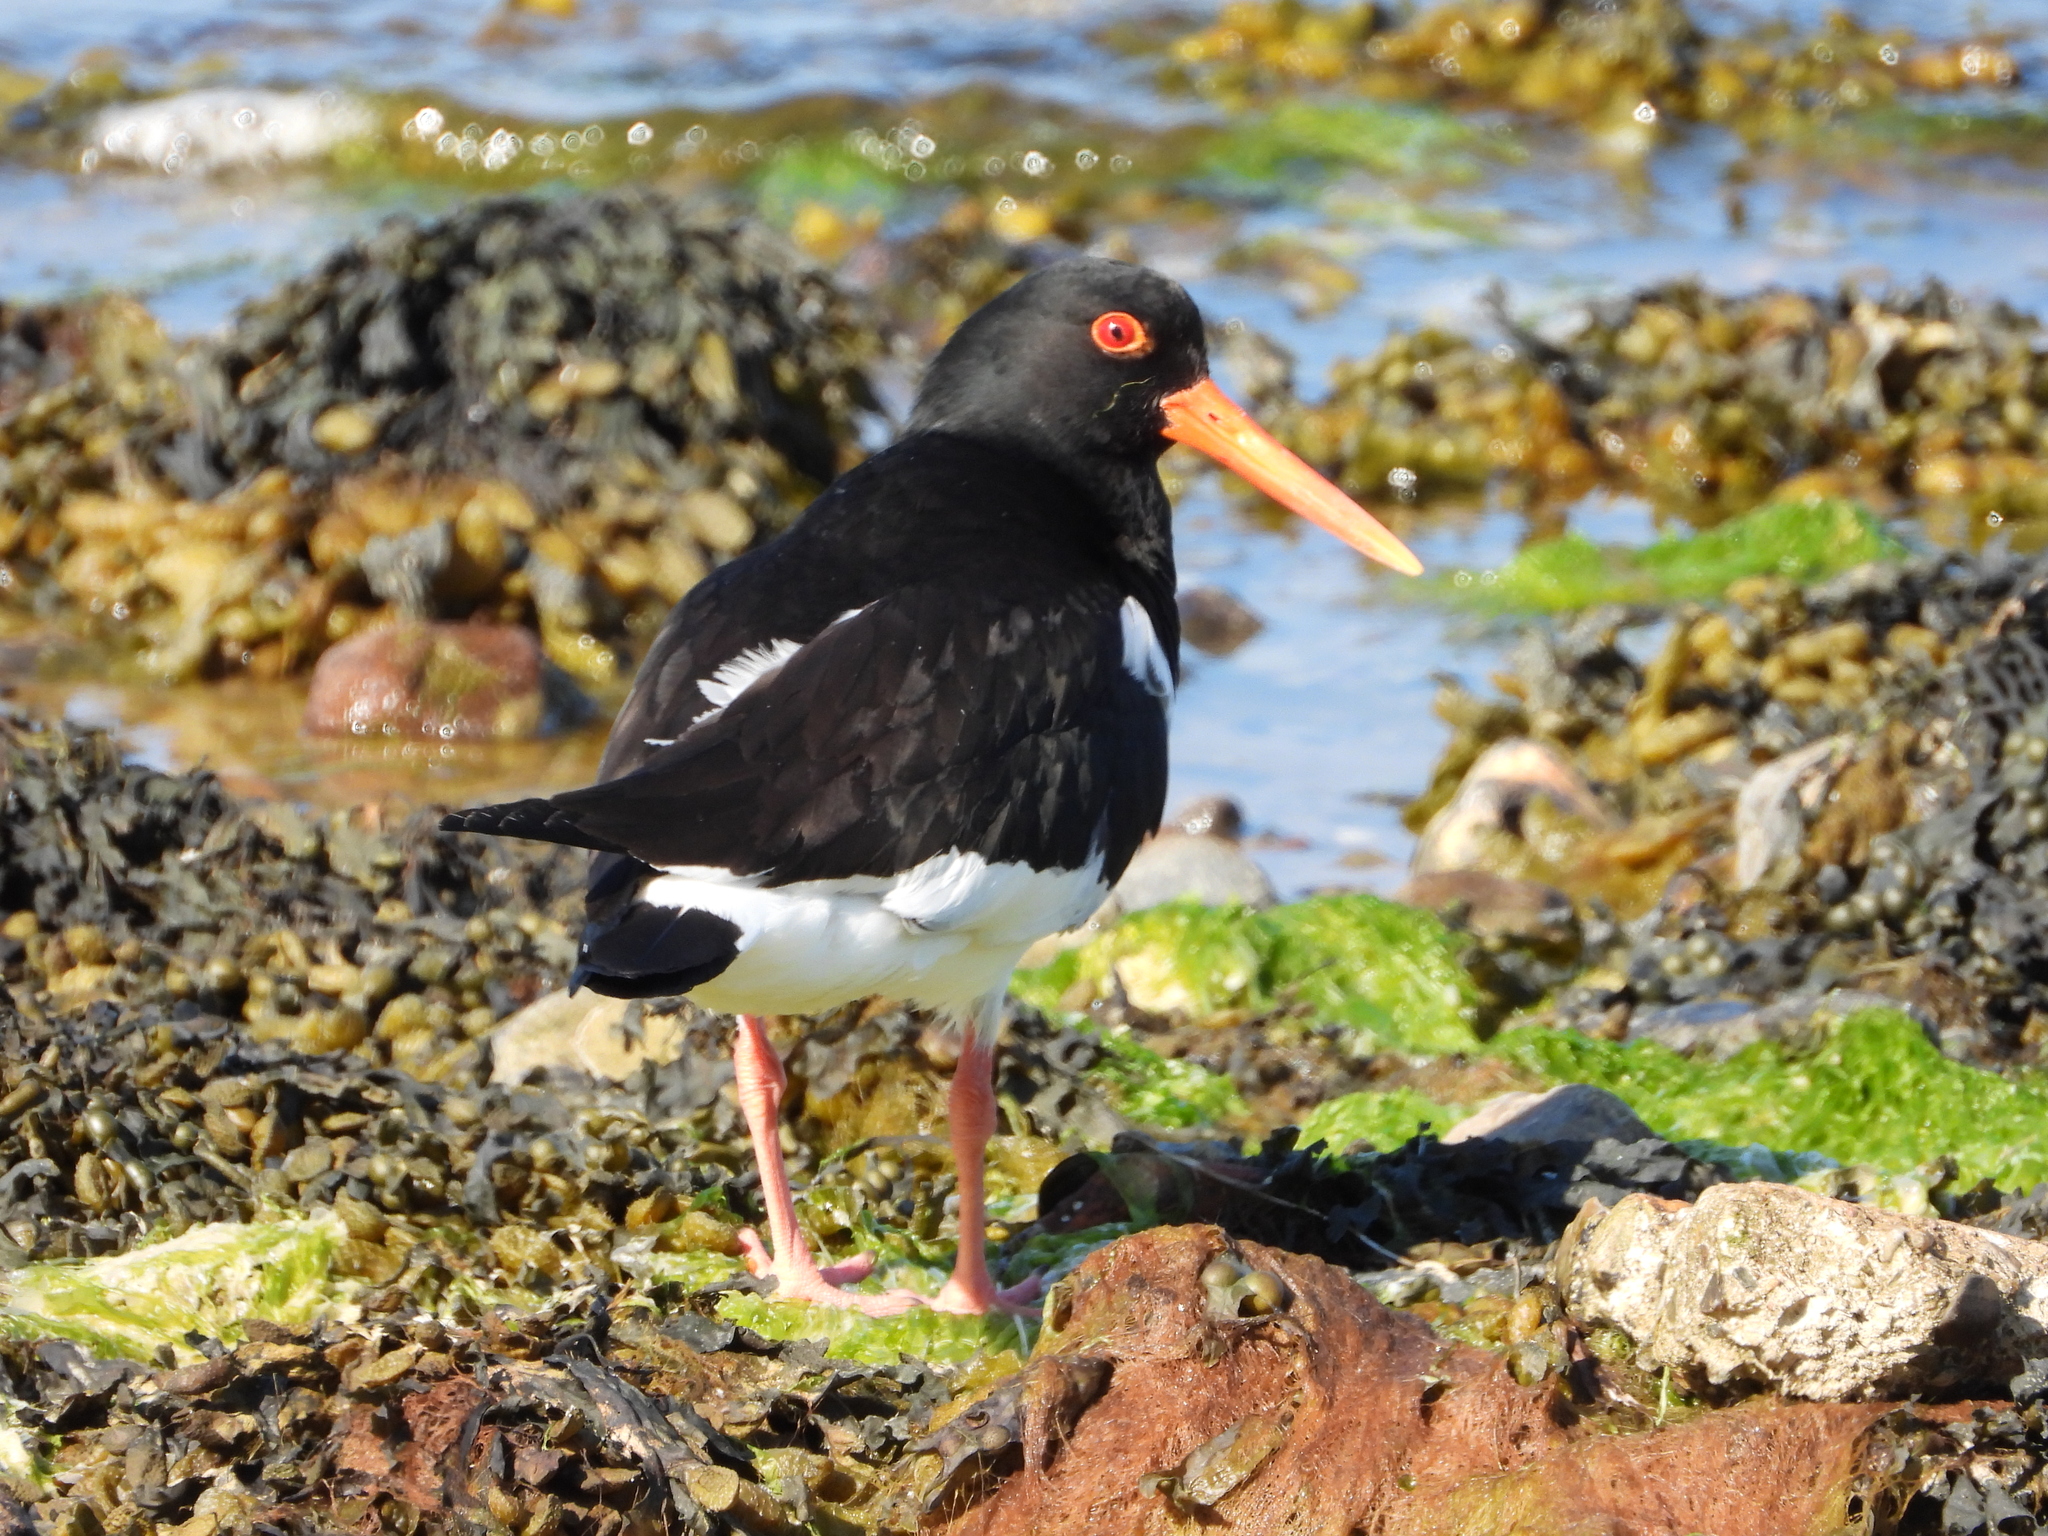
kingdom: Animalia
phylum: Chordata
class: Aves
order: Charadriiformes
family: Haematopodidae
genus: Haematopus
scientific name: Haematopus ostralegus
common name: Eurasian oystercatcher
